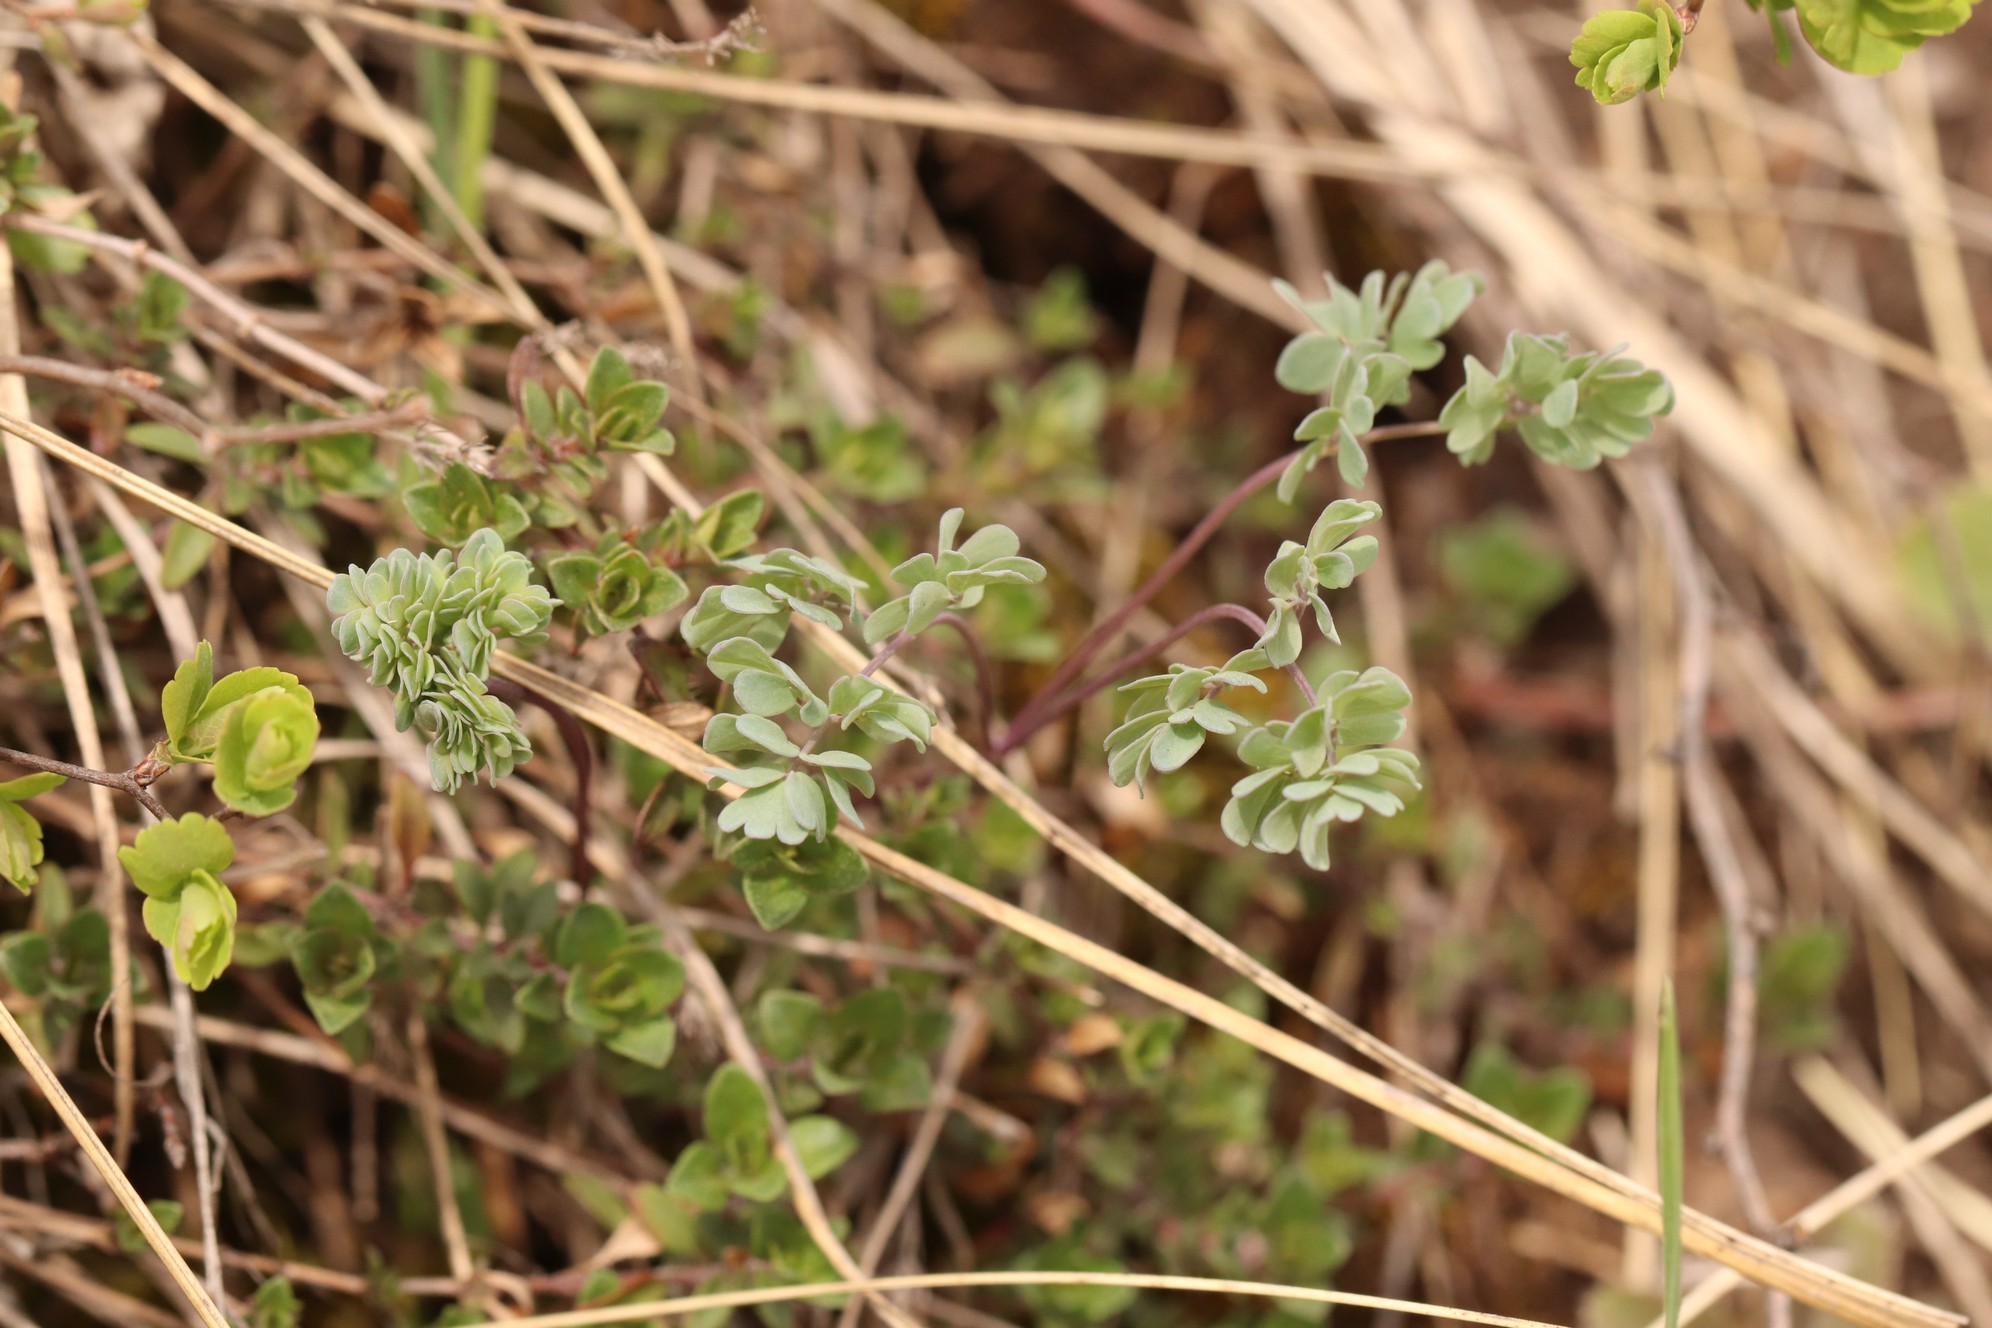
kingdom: Plantae
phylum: Tracheophyta
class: Magnoliopsida
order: Ranunculales
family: Ranunculaceae
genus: Thalictrum
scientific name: Thalictrum petaloideum
